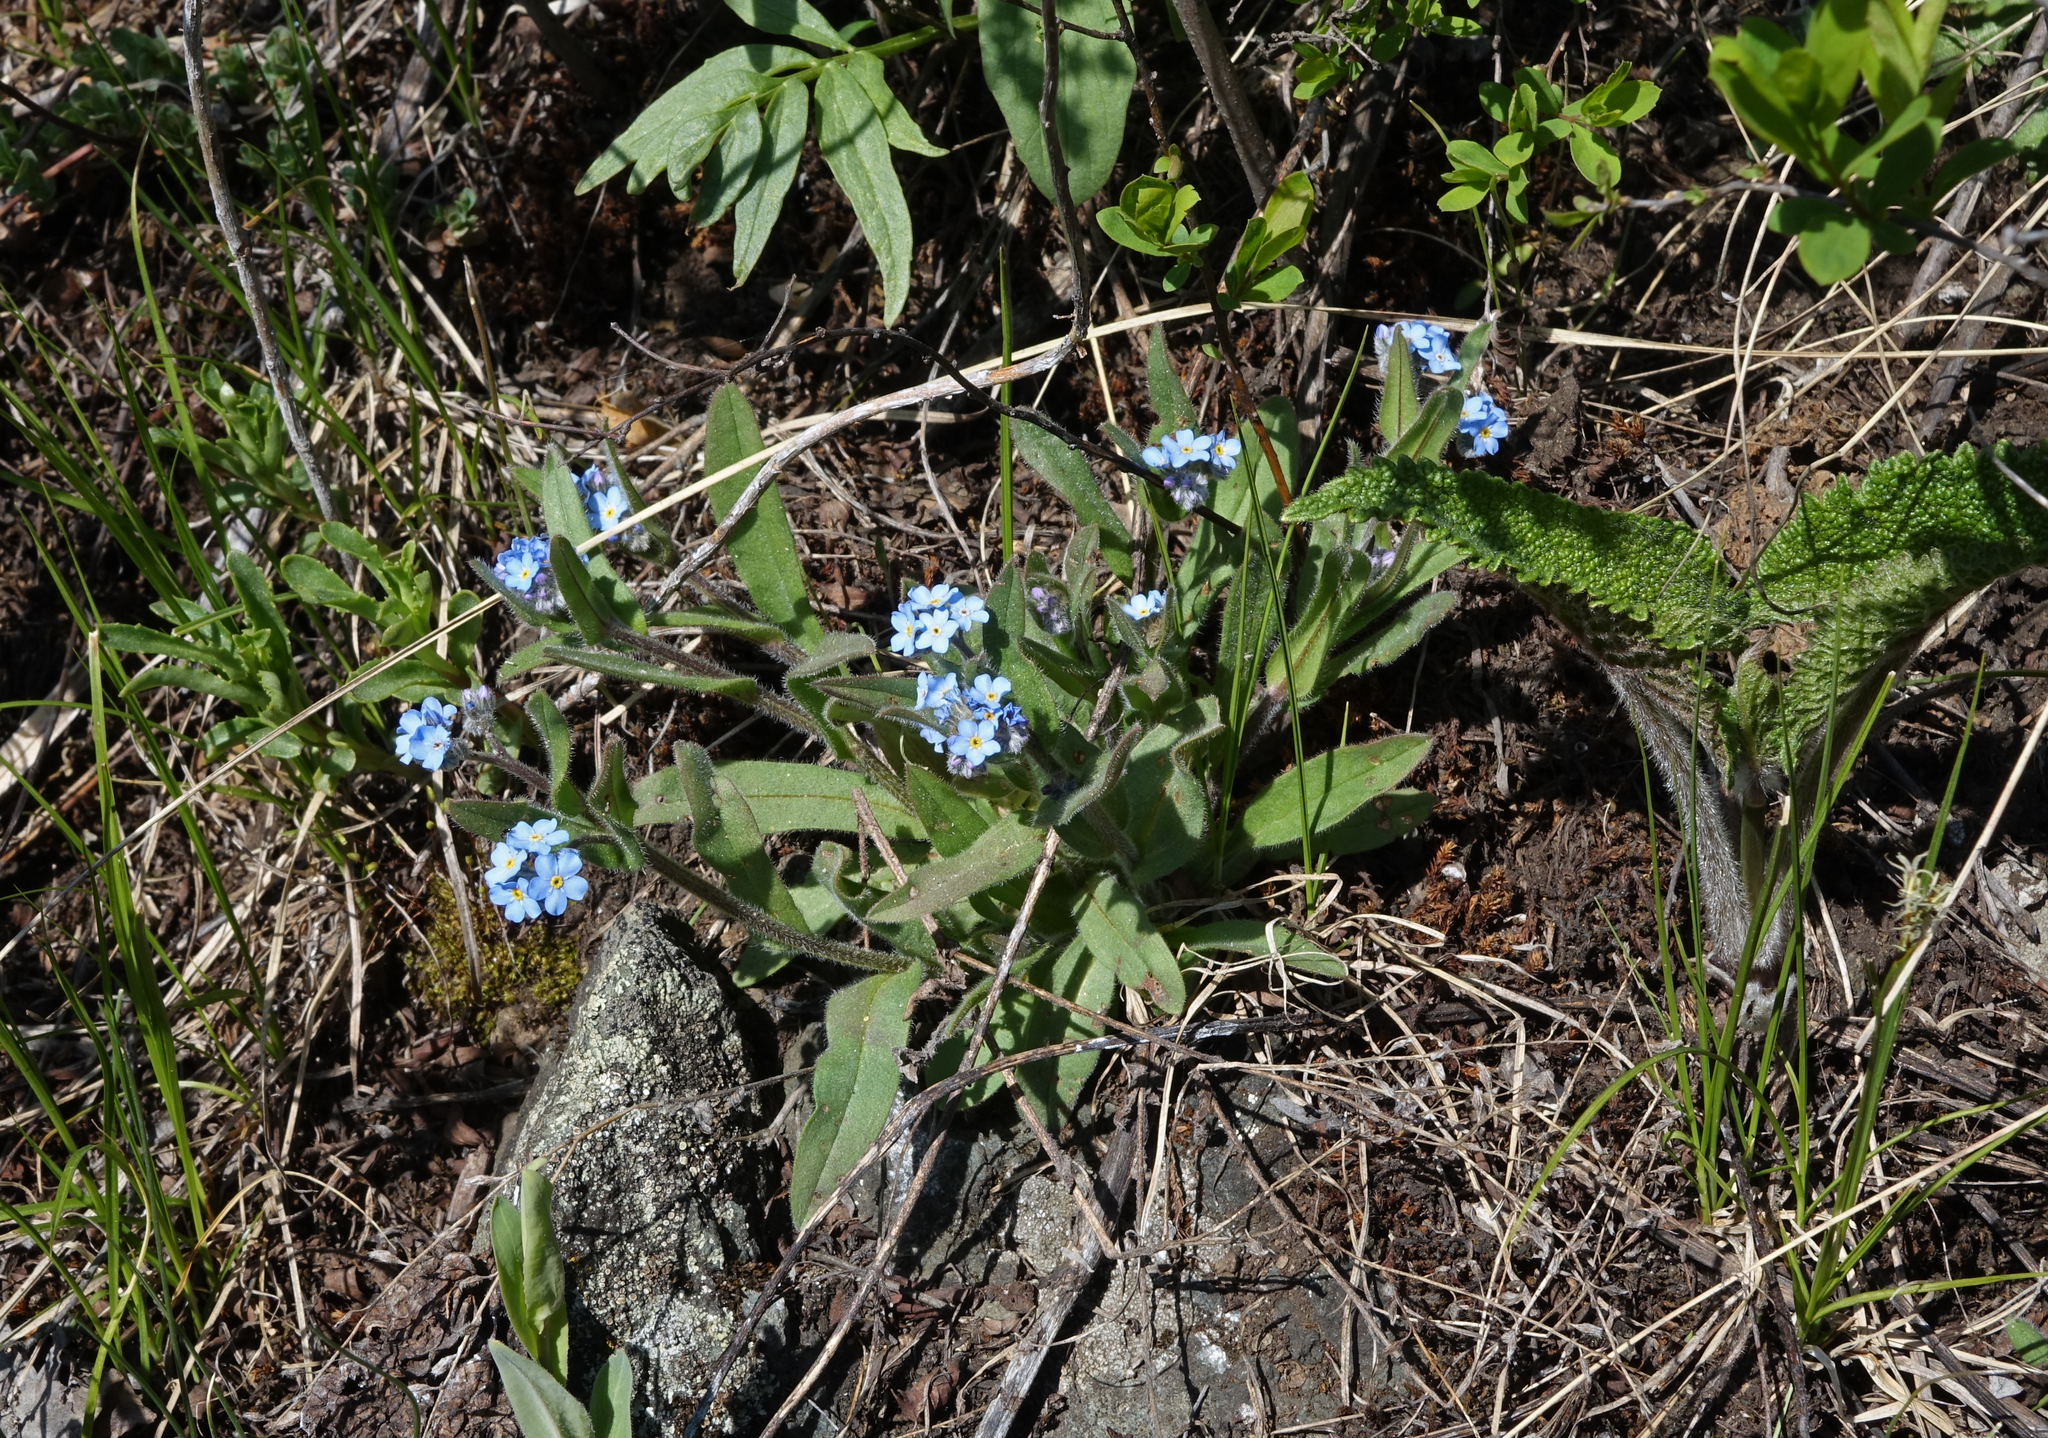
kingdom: Plantae
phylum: Tracheophyta
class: Magnoliopsida
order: Boraginales
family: Boraginaceae
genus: Myosotis
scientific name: Myosotis imitata
